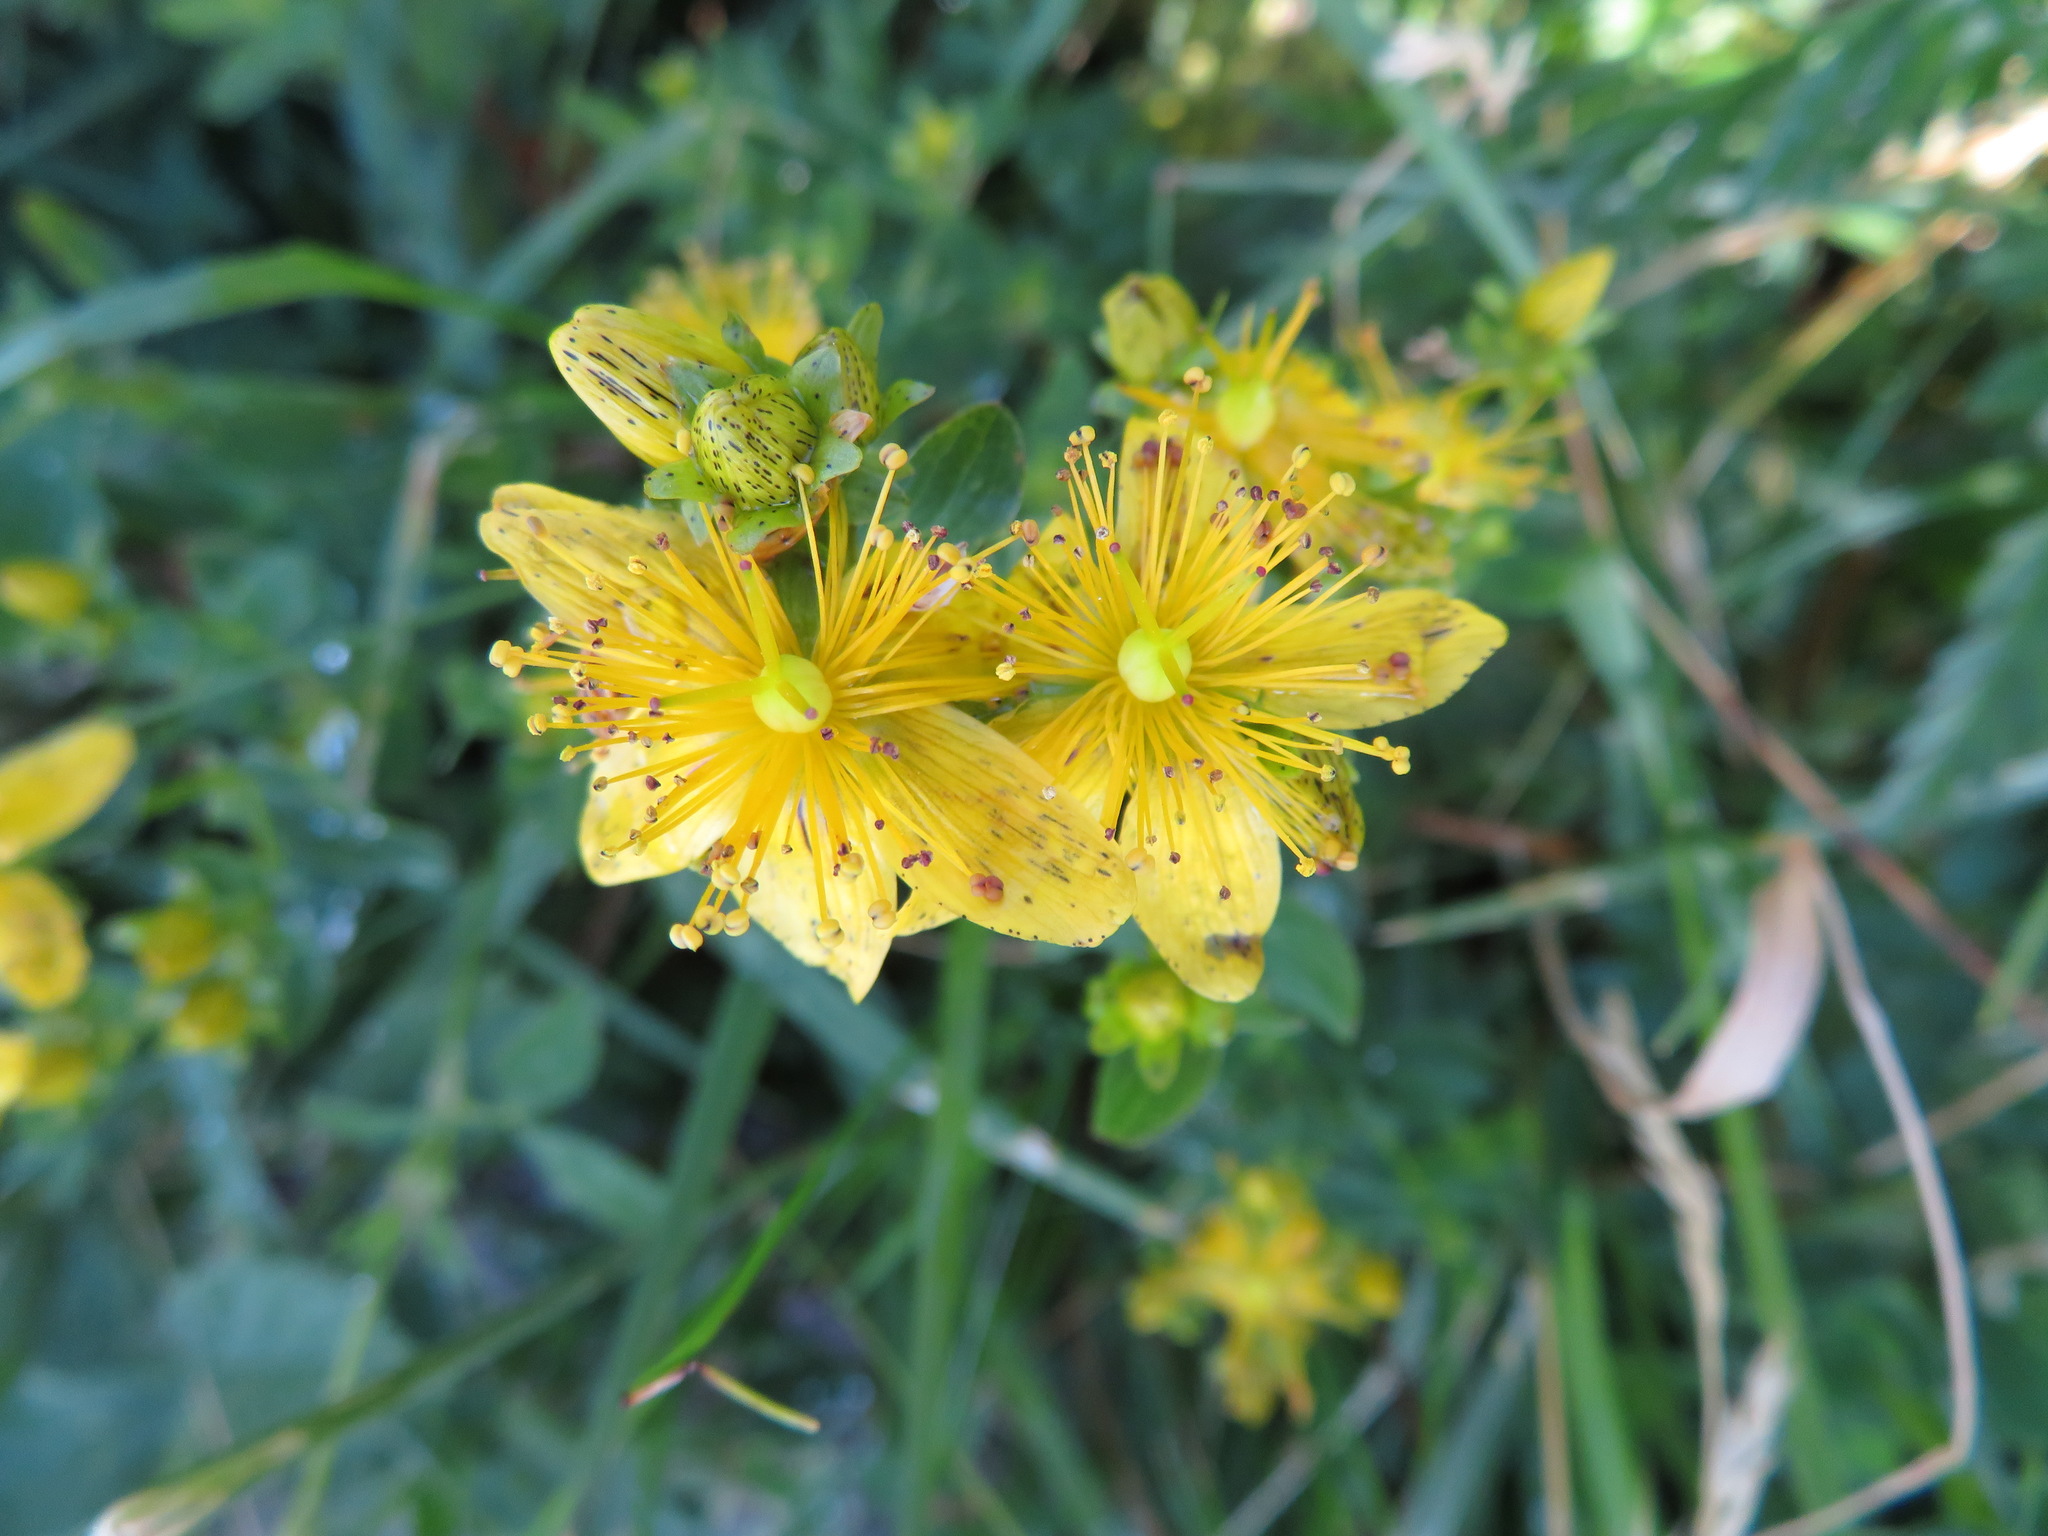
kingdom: Plantae
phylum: Tracheophyta
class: Magnoliopsida
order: Malpighiales
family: Hypericaceae
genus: Hypericum
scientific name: Hypericum maculatum
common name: Imperforate st. john's-wort
